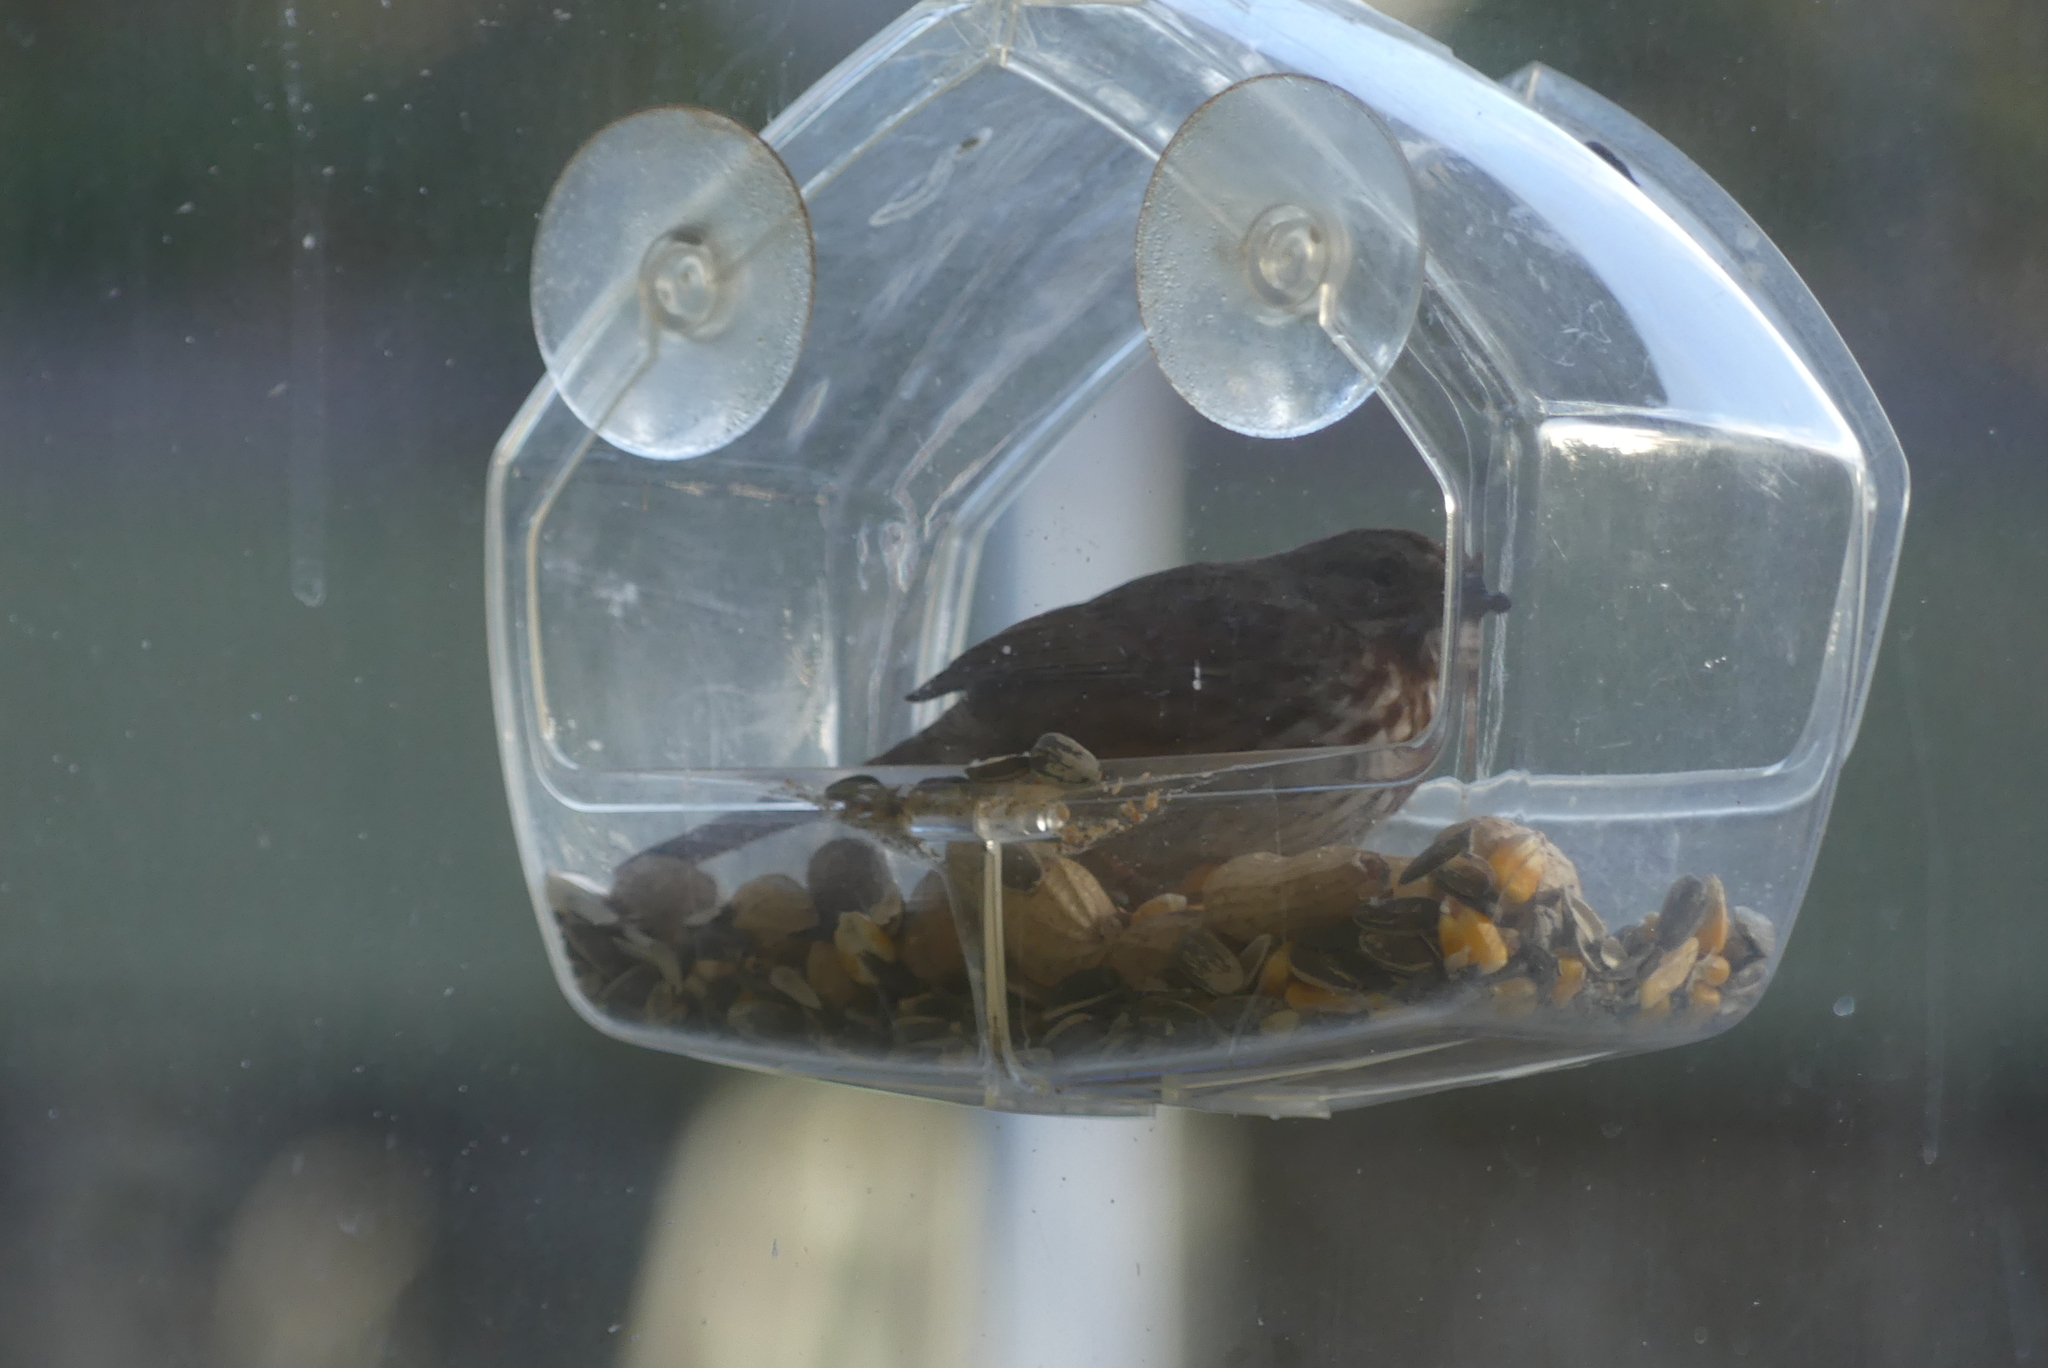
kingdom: Animalia
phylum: Chordata
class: Aves
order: Passeriformes
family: Passerellidae
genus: Melospiza
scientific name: Melospiza melodia
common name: Song sparrow
